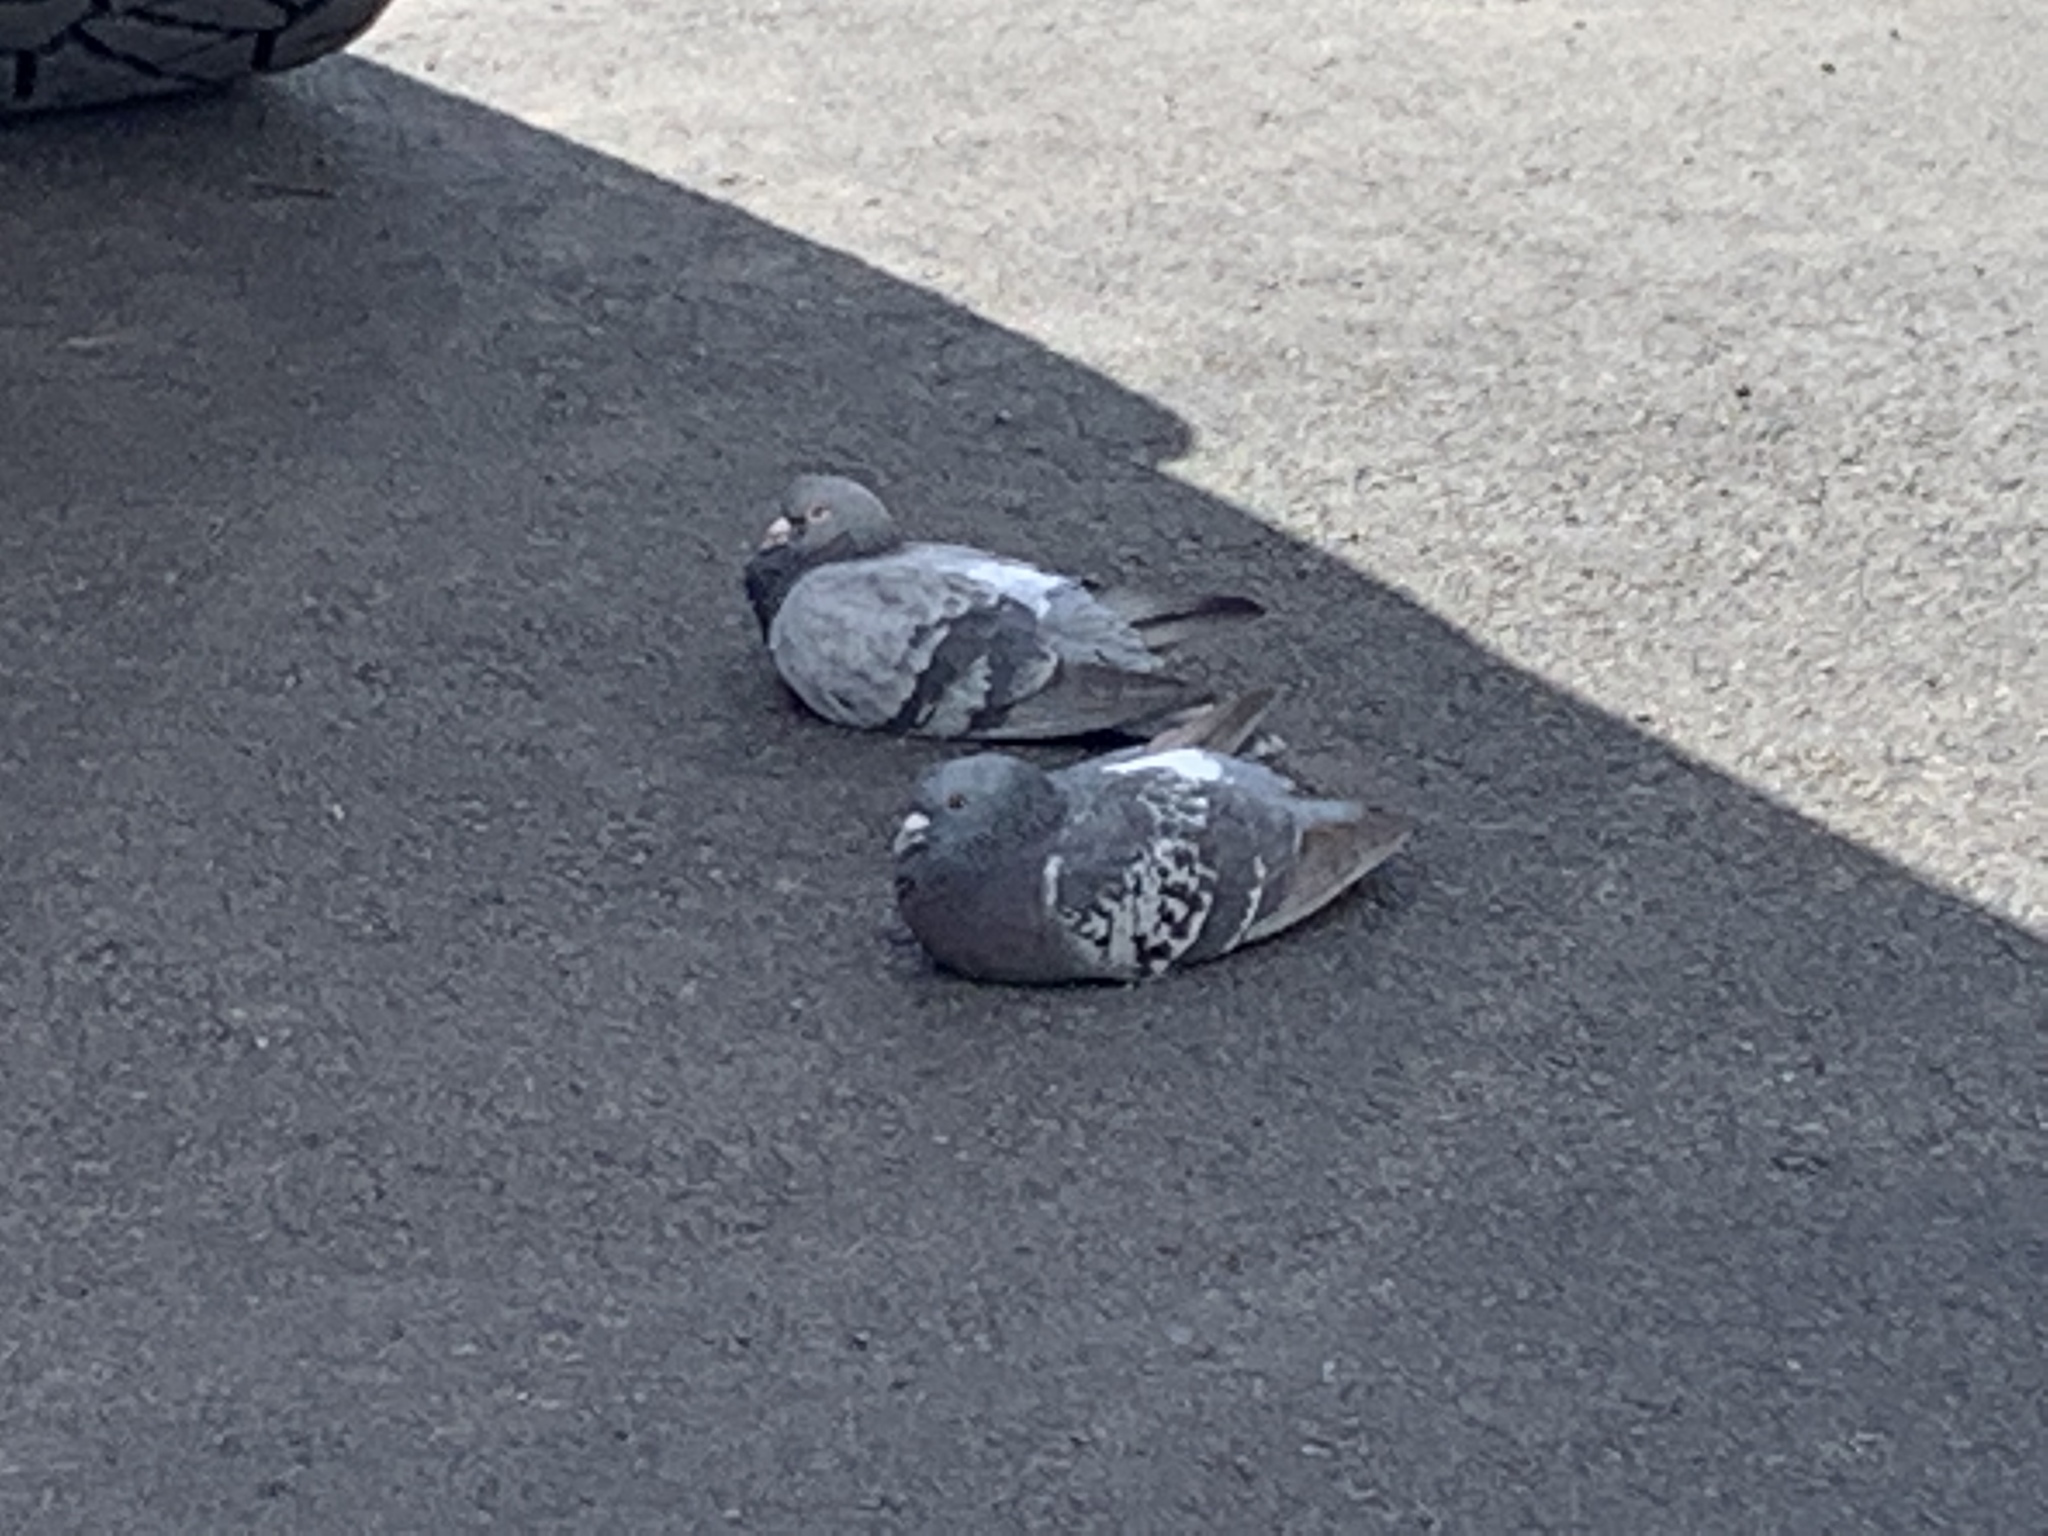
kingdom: Animalia
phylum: Chordata
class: Aves
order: Columbiformes
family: Columbidae
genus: Columba
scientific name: Columba livia
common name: Rock pigeon
